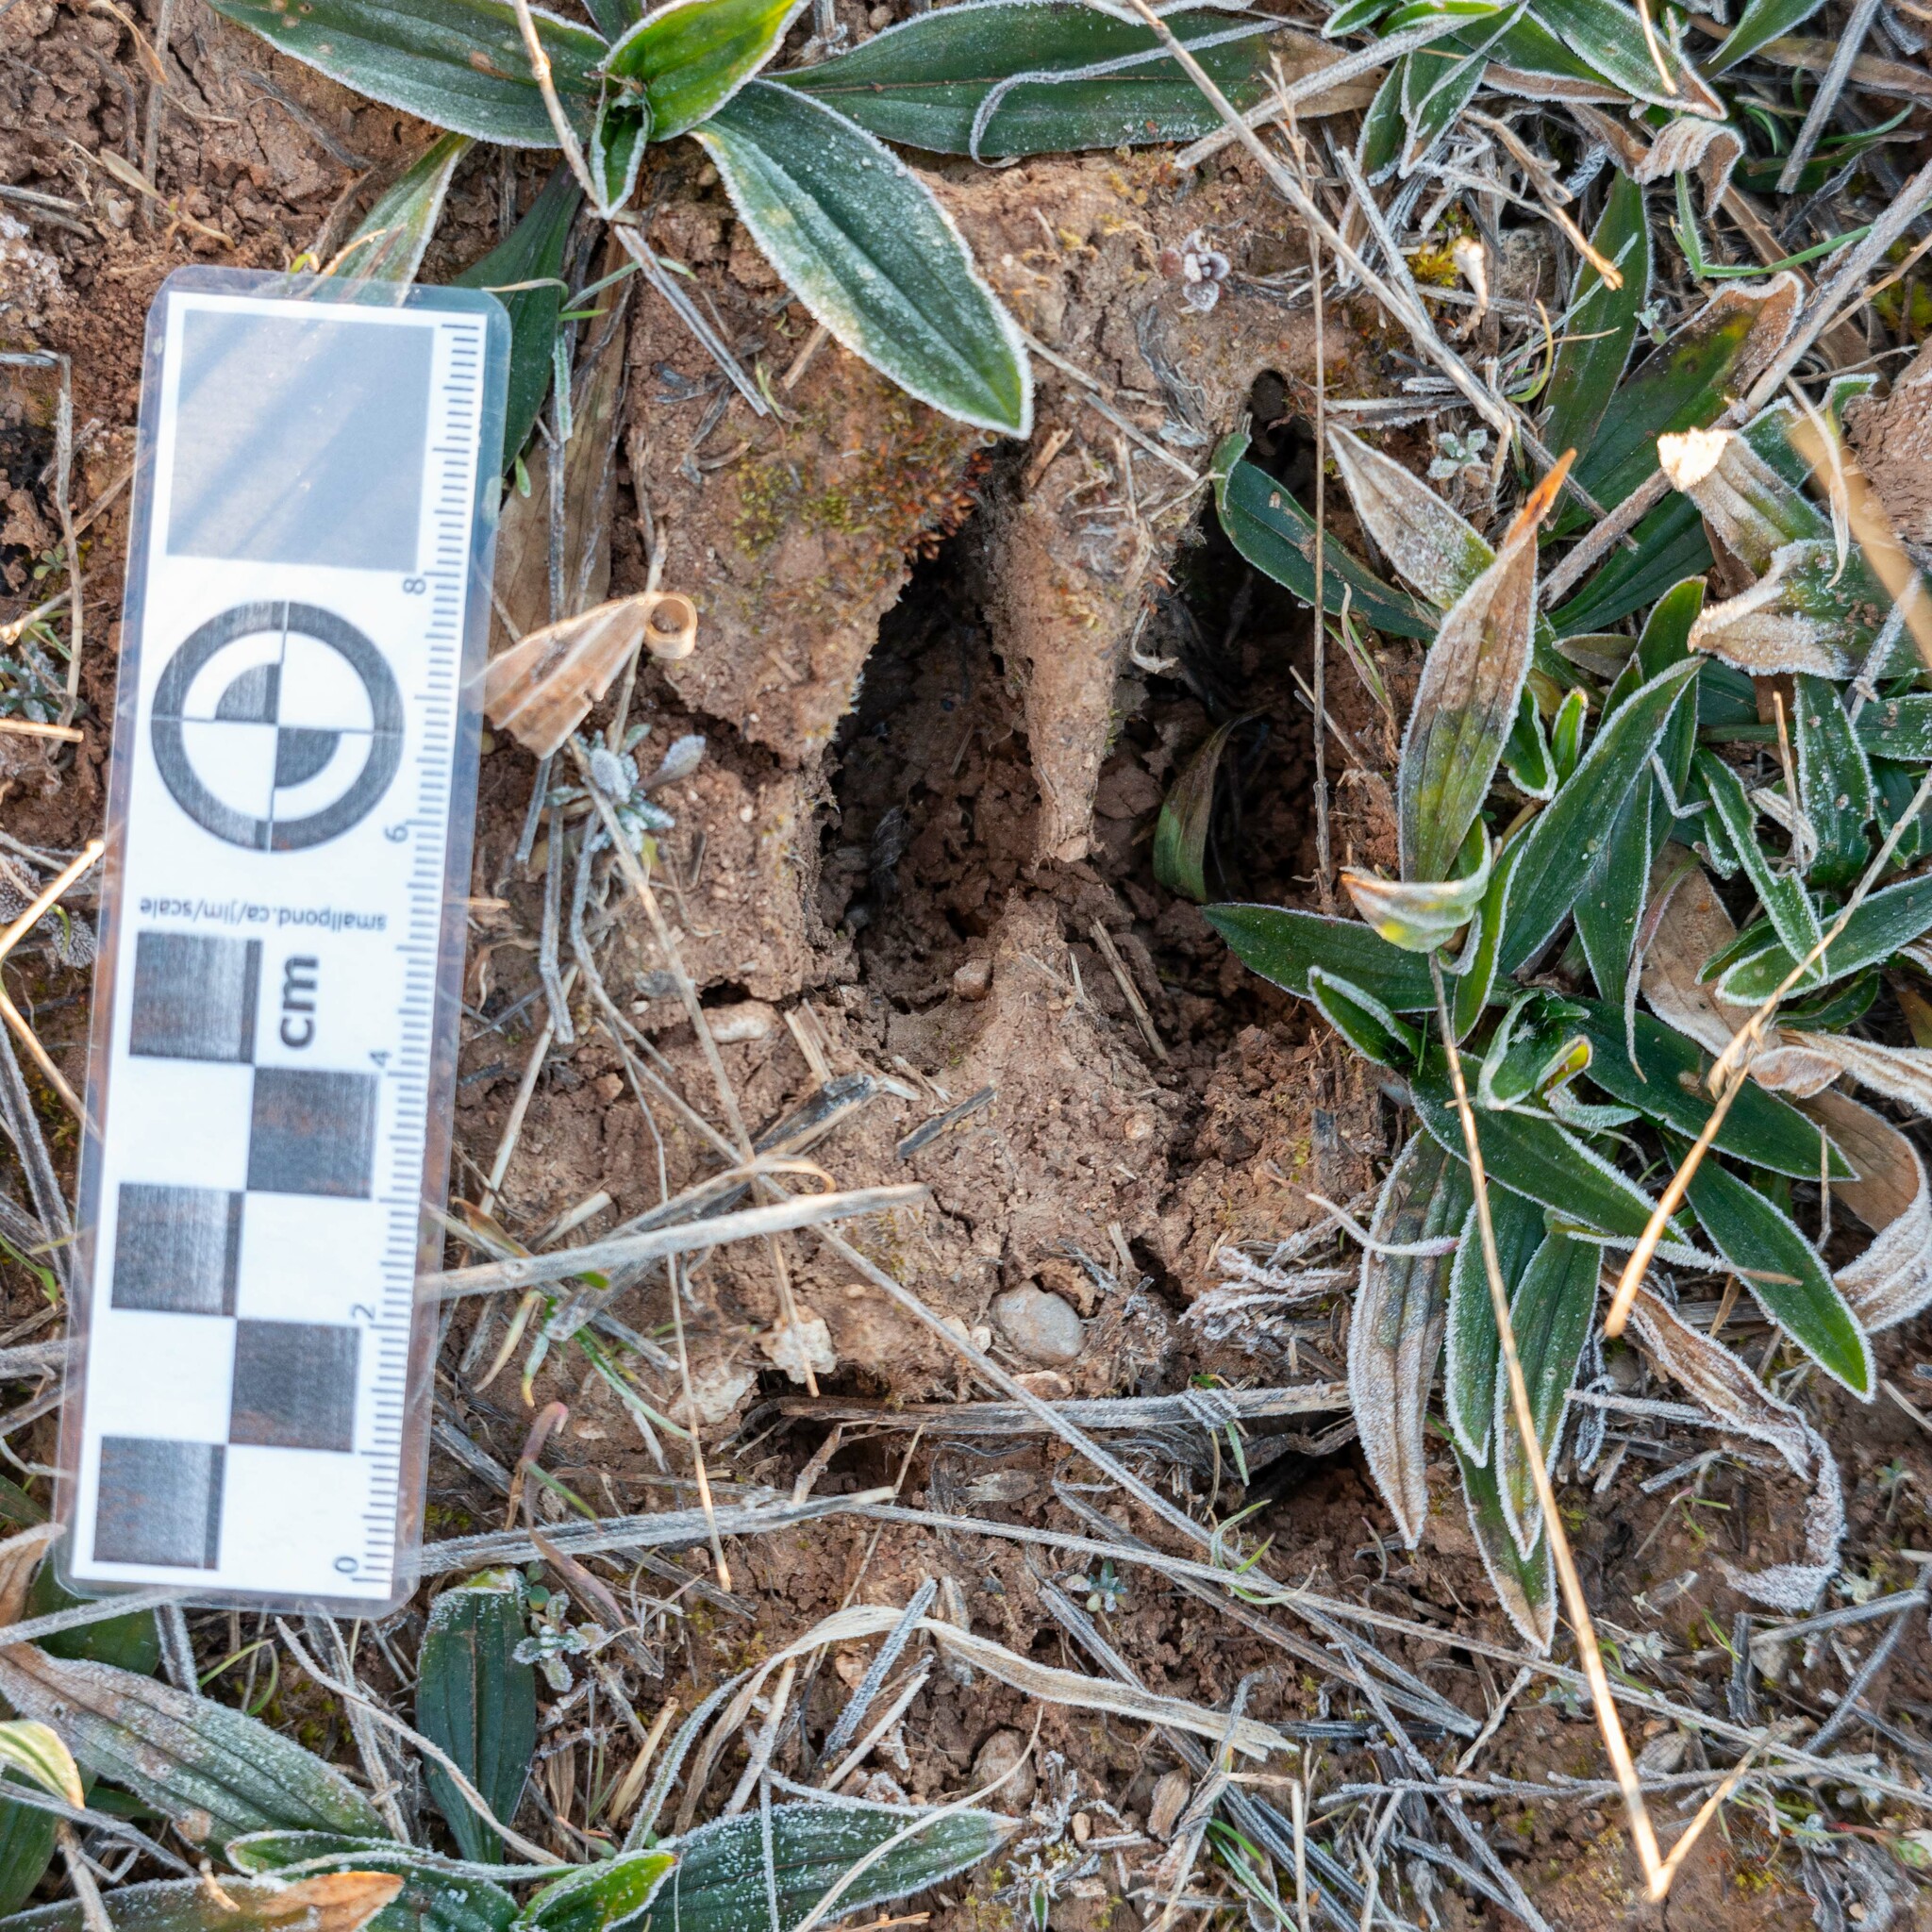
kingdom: Animalia
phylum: Chordata
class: Mammalia
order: Artiodactyla
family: Cervidae
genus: Capreolus
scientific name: Capreolus capreolus
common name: Western roe deer
